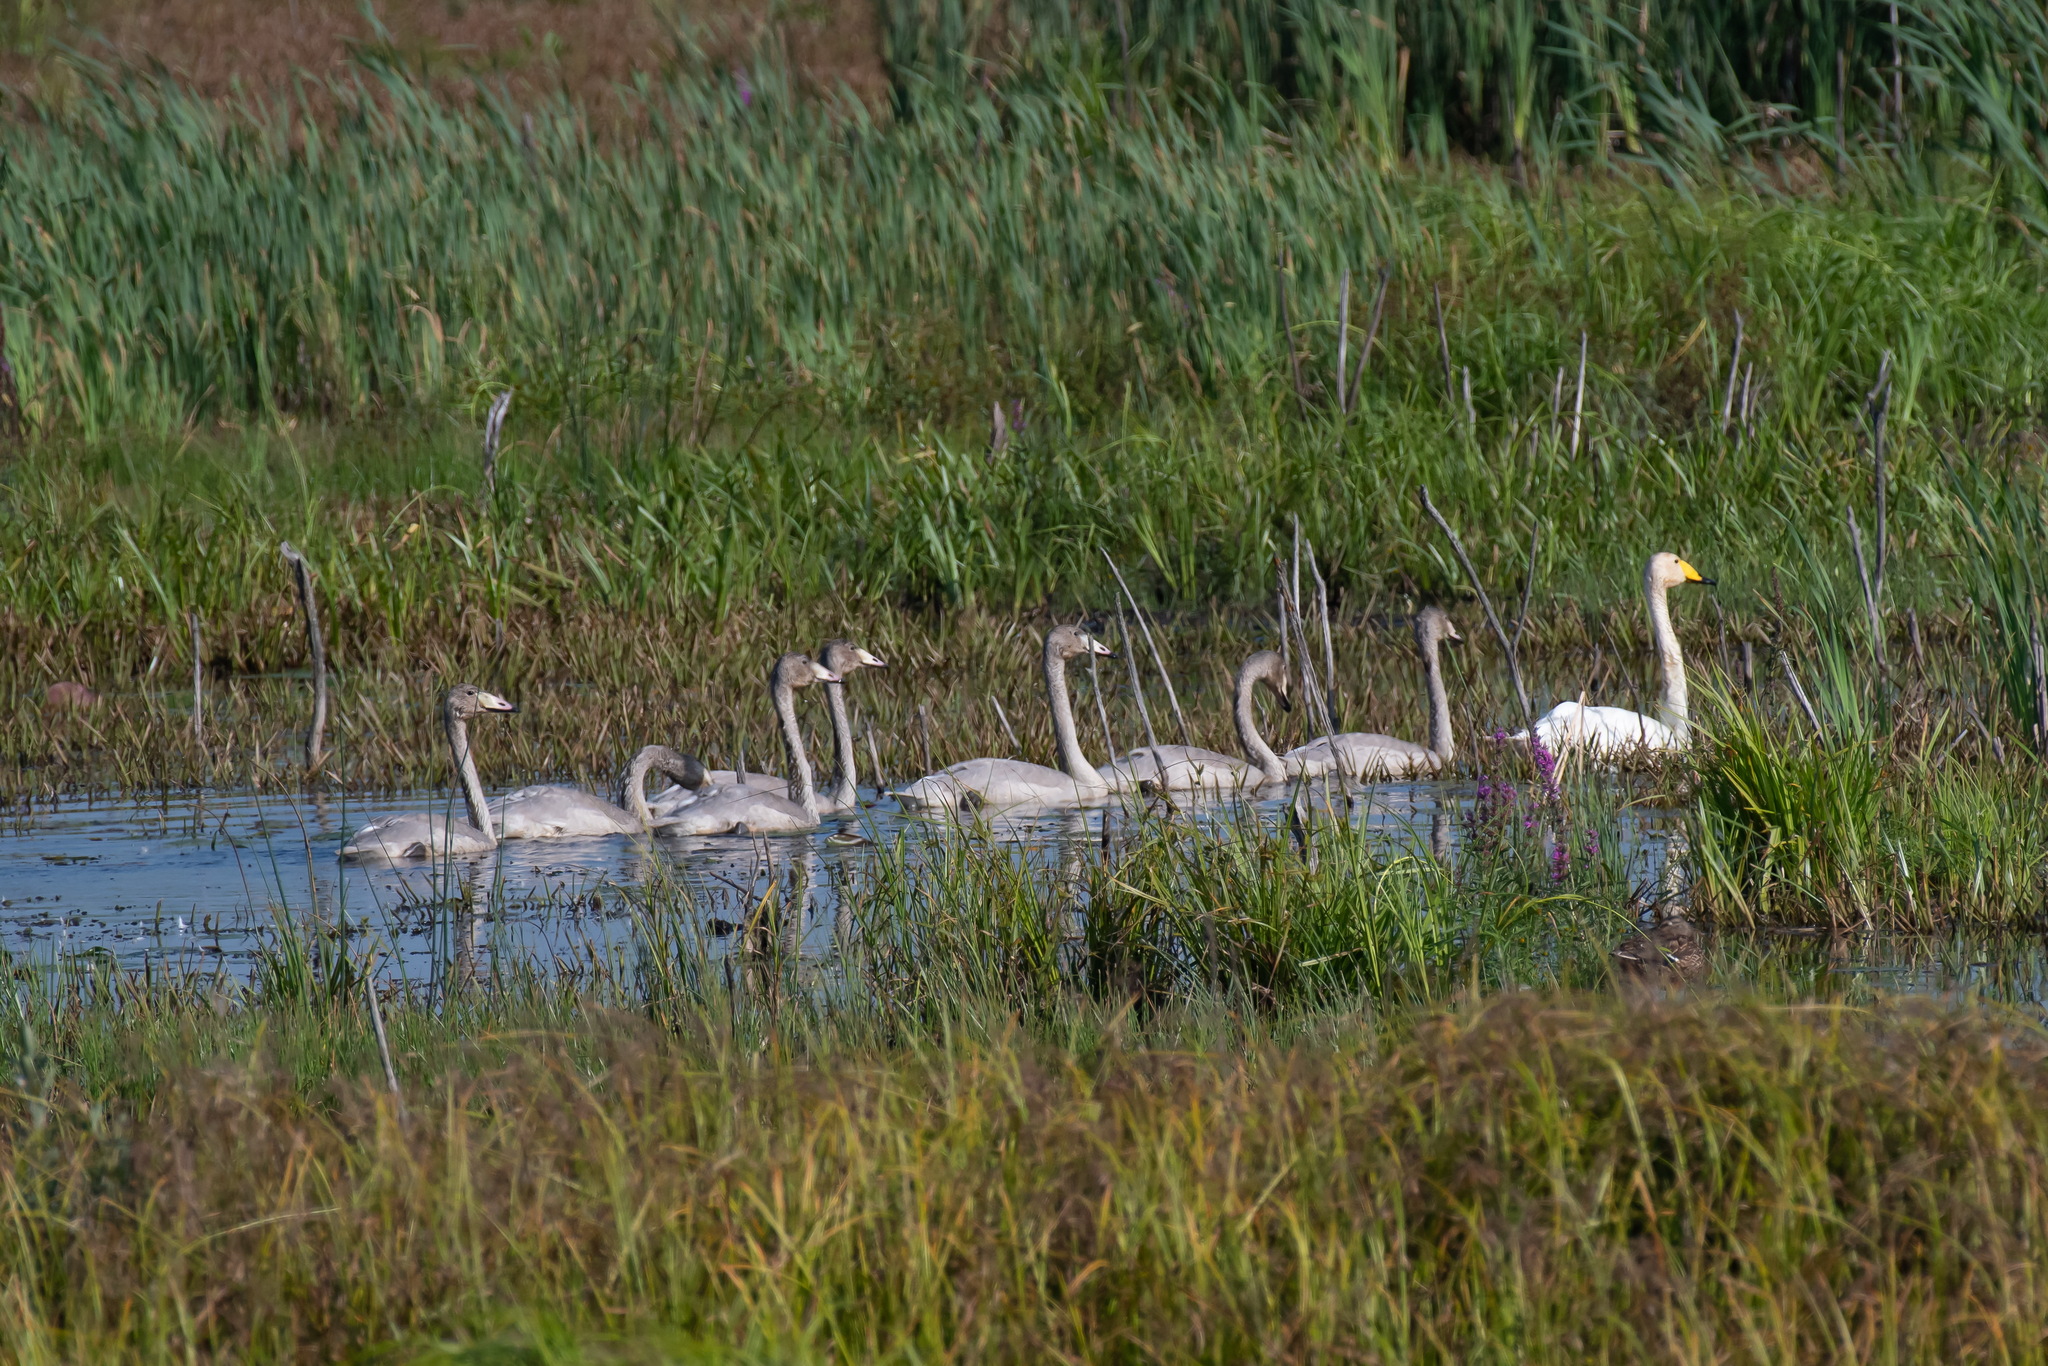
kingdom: Animalia
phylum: Chordata
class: Aves
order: Anseriformes
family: Anatidae
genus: Cygnus
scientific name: Cygnus cygnus
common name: Whooper swan
